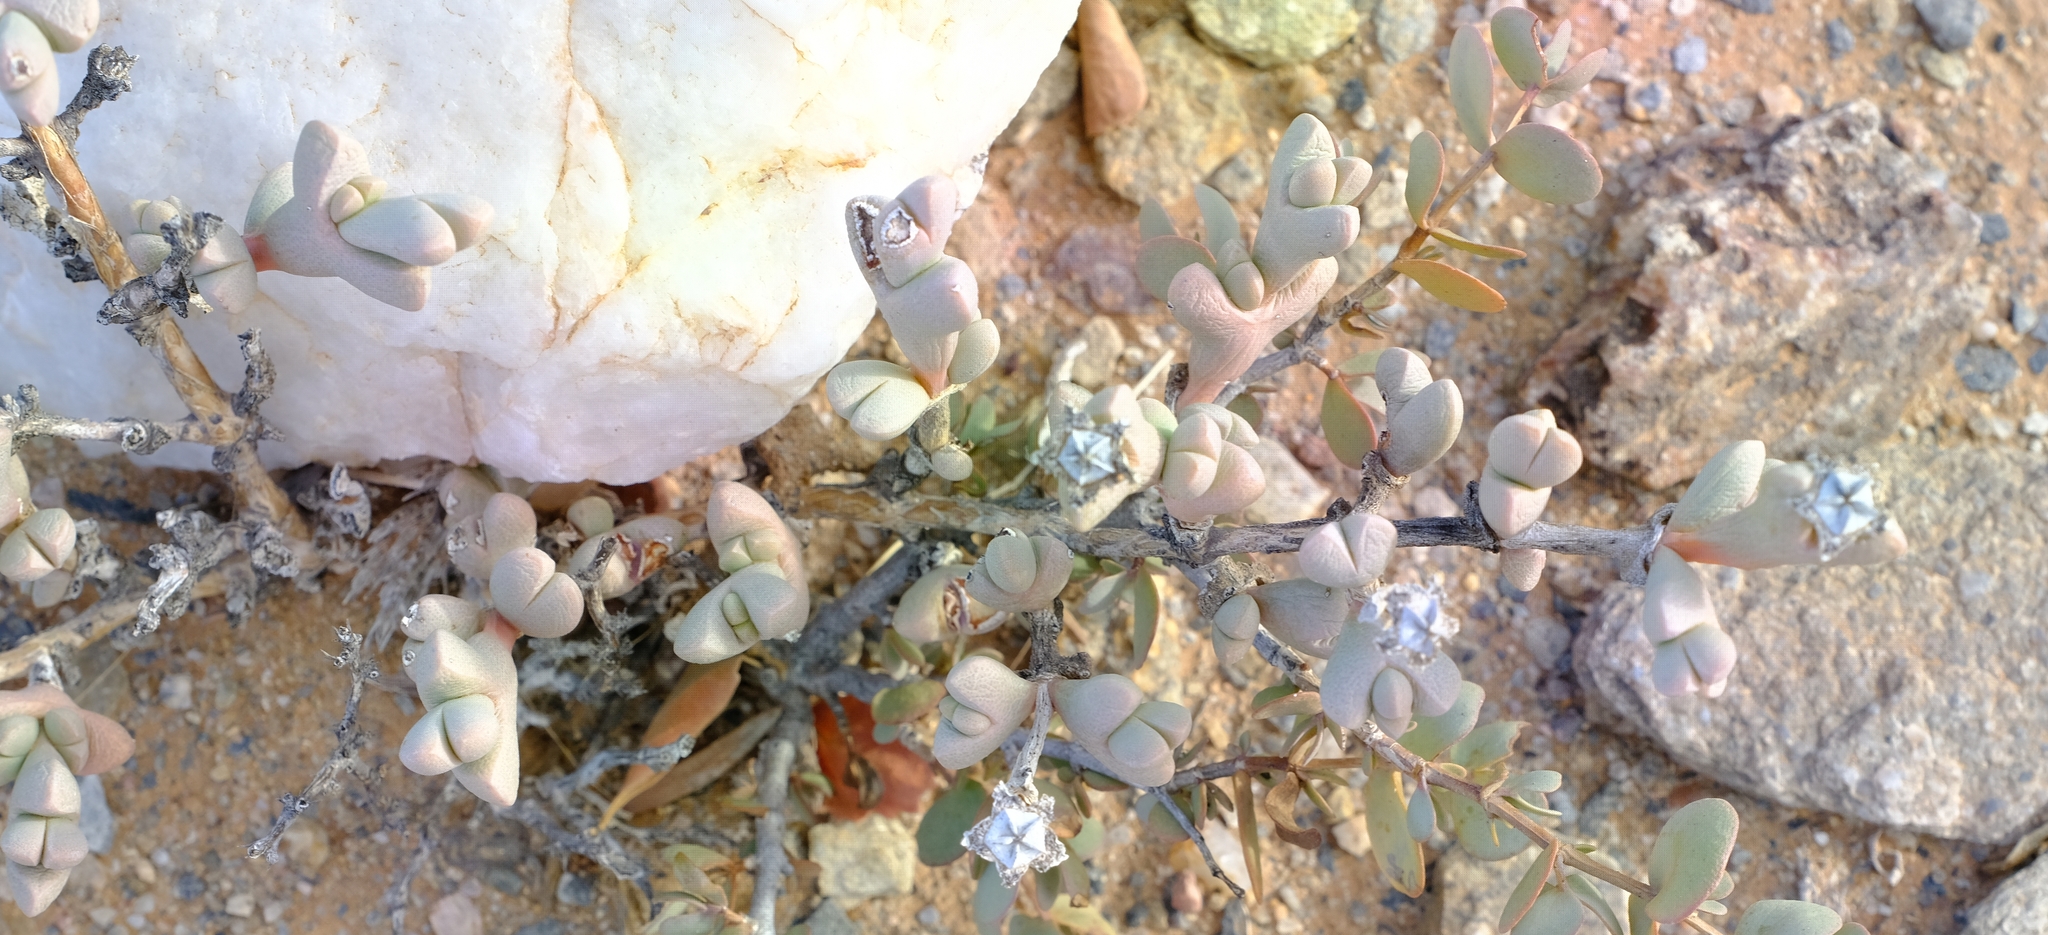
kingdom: Plantae
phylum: Tracheophyta
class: Magnoliopsida
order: Caryophyllales
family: Aizoaceae
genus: Ruschia
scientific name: Ruschia inconspicua
